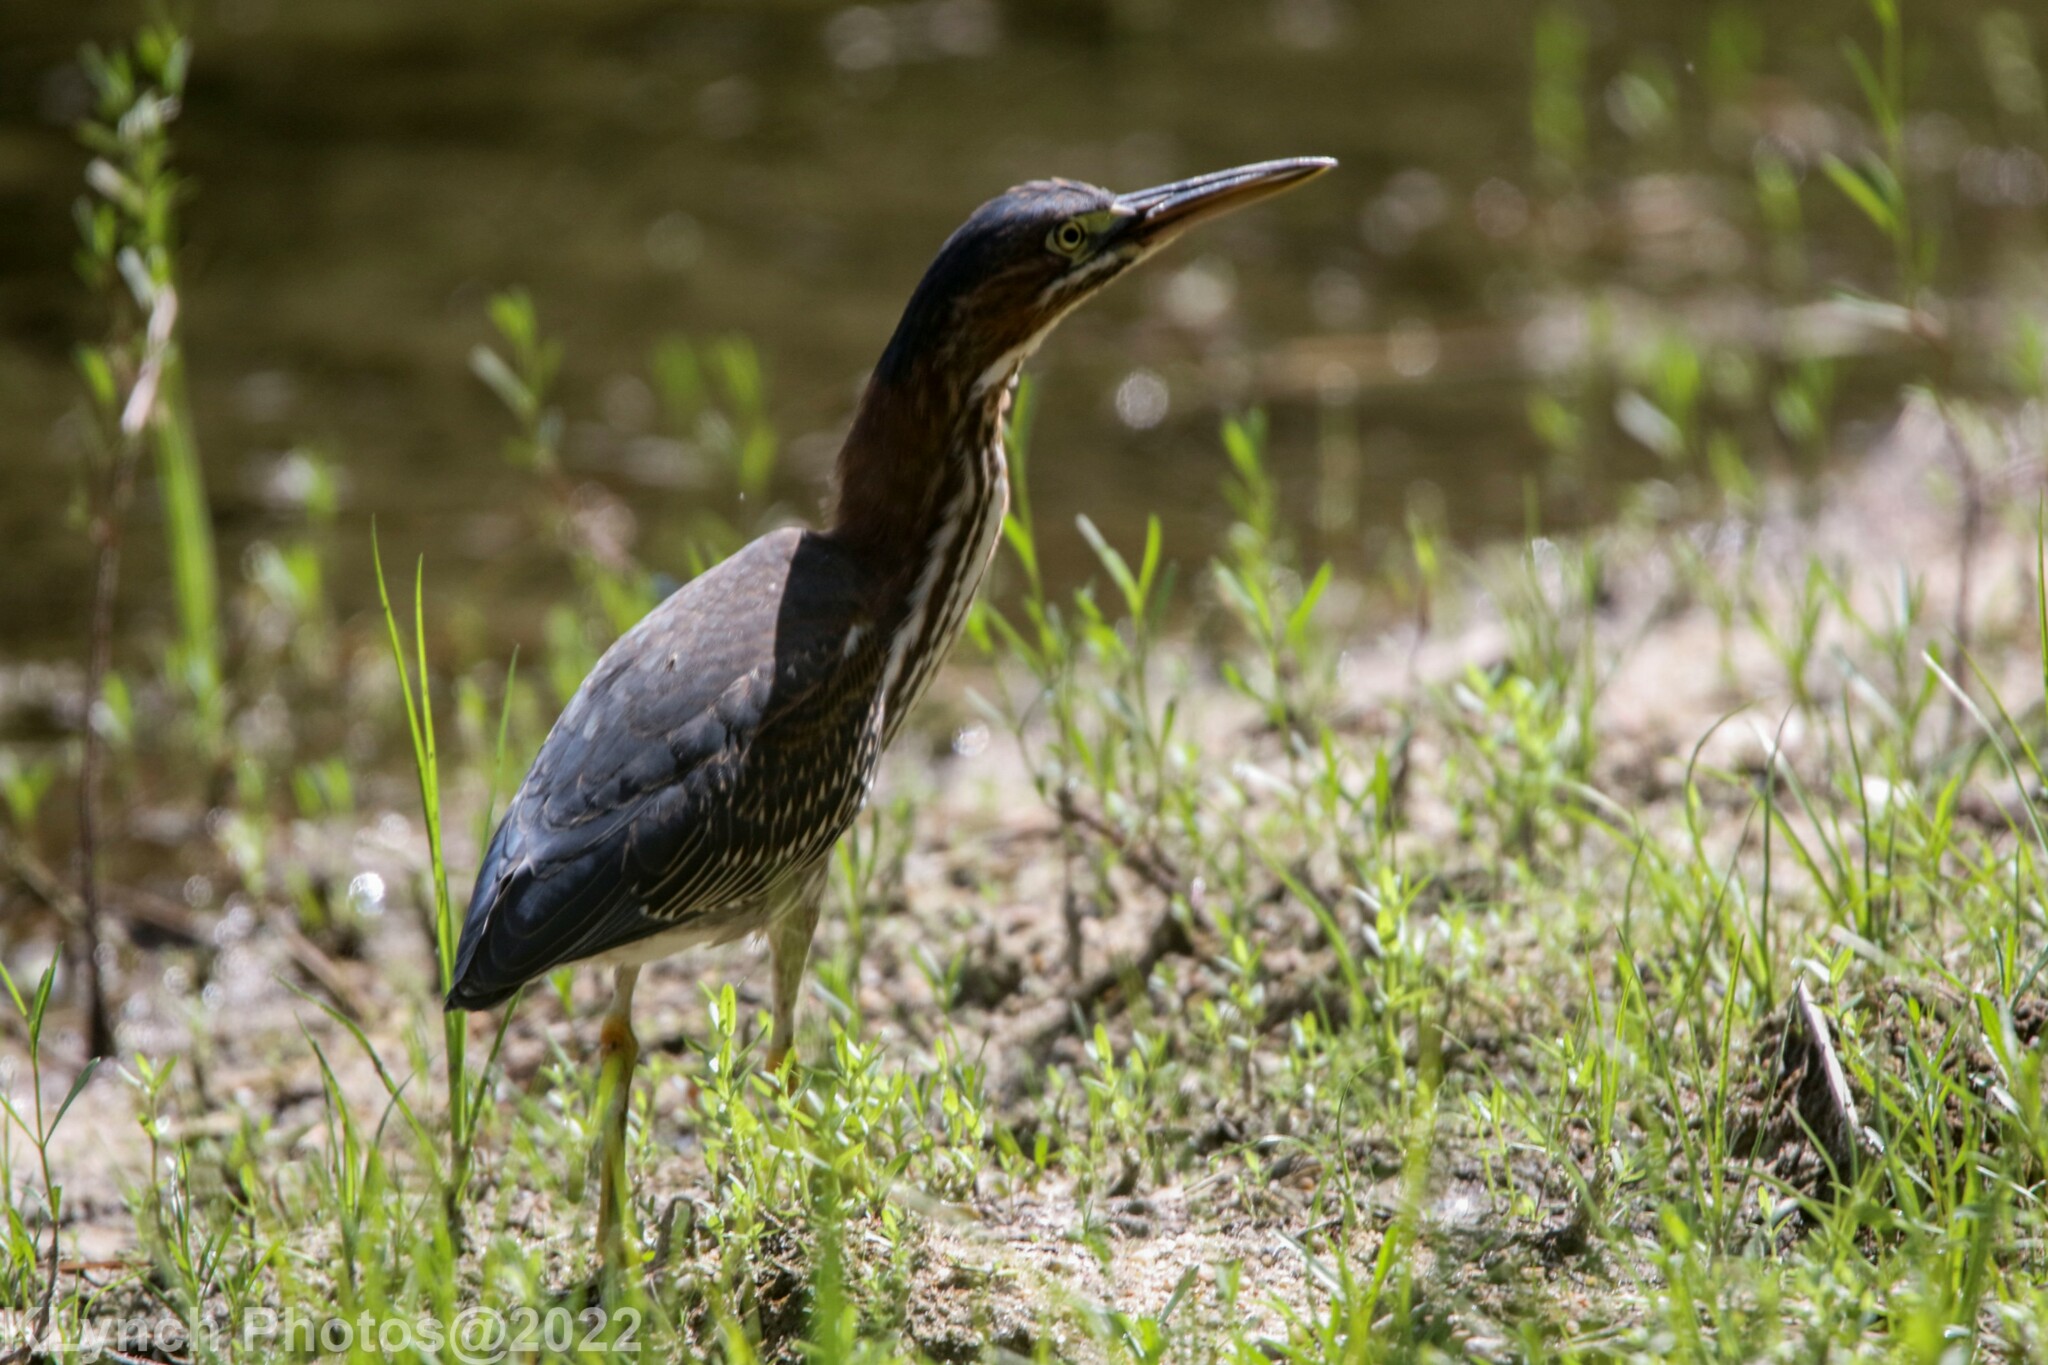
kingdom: Animalia
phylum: Chordata
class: Aves
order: Pelecaniformes
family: Ardeidae
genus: Butorides
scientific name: Butorides virescens
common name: Green heron
